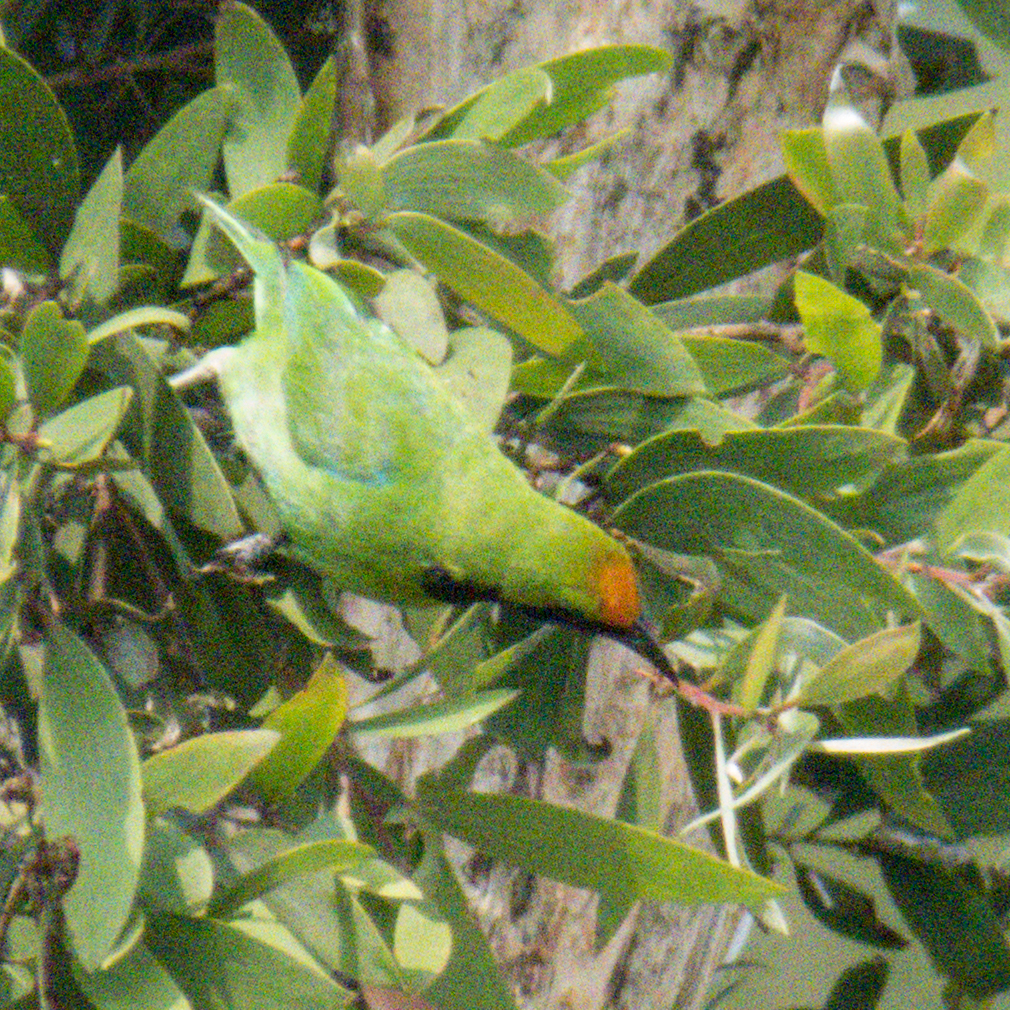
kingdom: Animalia
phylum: Chordata
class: Aves
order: Passeriformes
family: Chloropseidae
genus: Chloropsis
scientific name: Chloropsis aurifrons
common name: Golden-fronted leafbird
